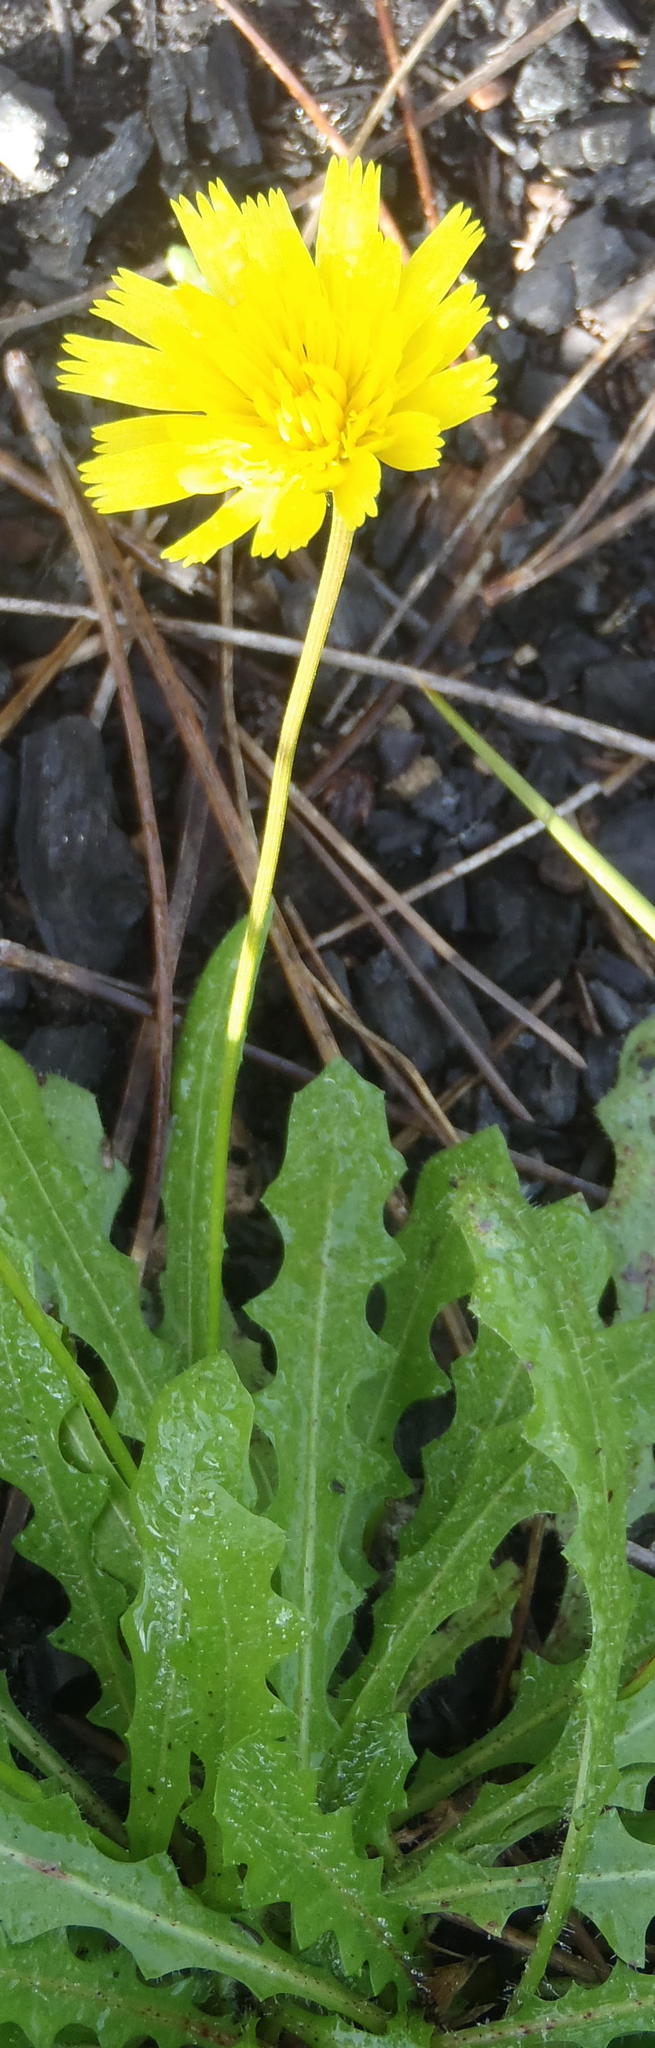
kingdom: Plantae
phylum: Tracheophyta
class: Magnoliopsida
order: Asterales
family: Asteraceae
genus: Hypochaeris
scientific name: Hypochaeris radicata
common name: Flatweed
